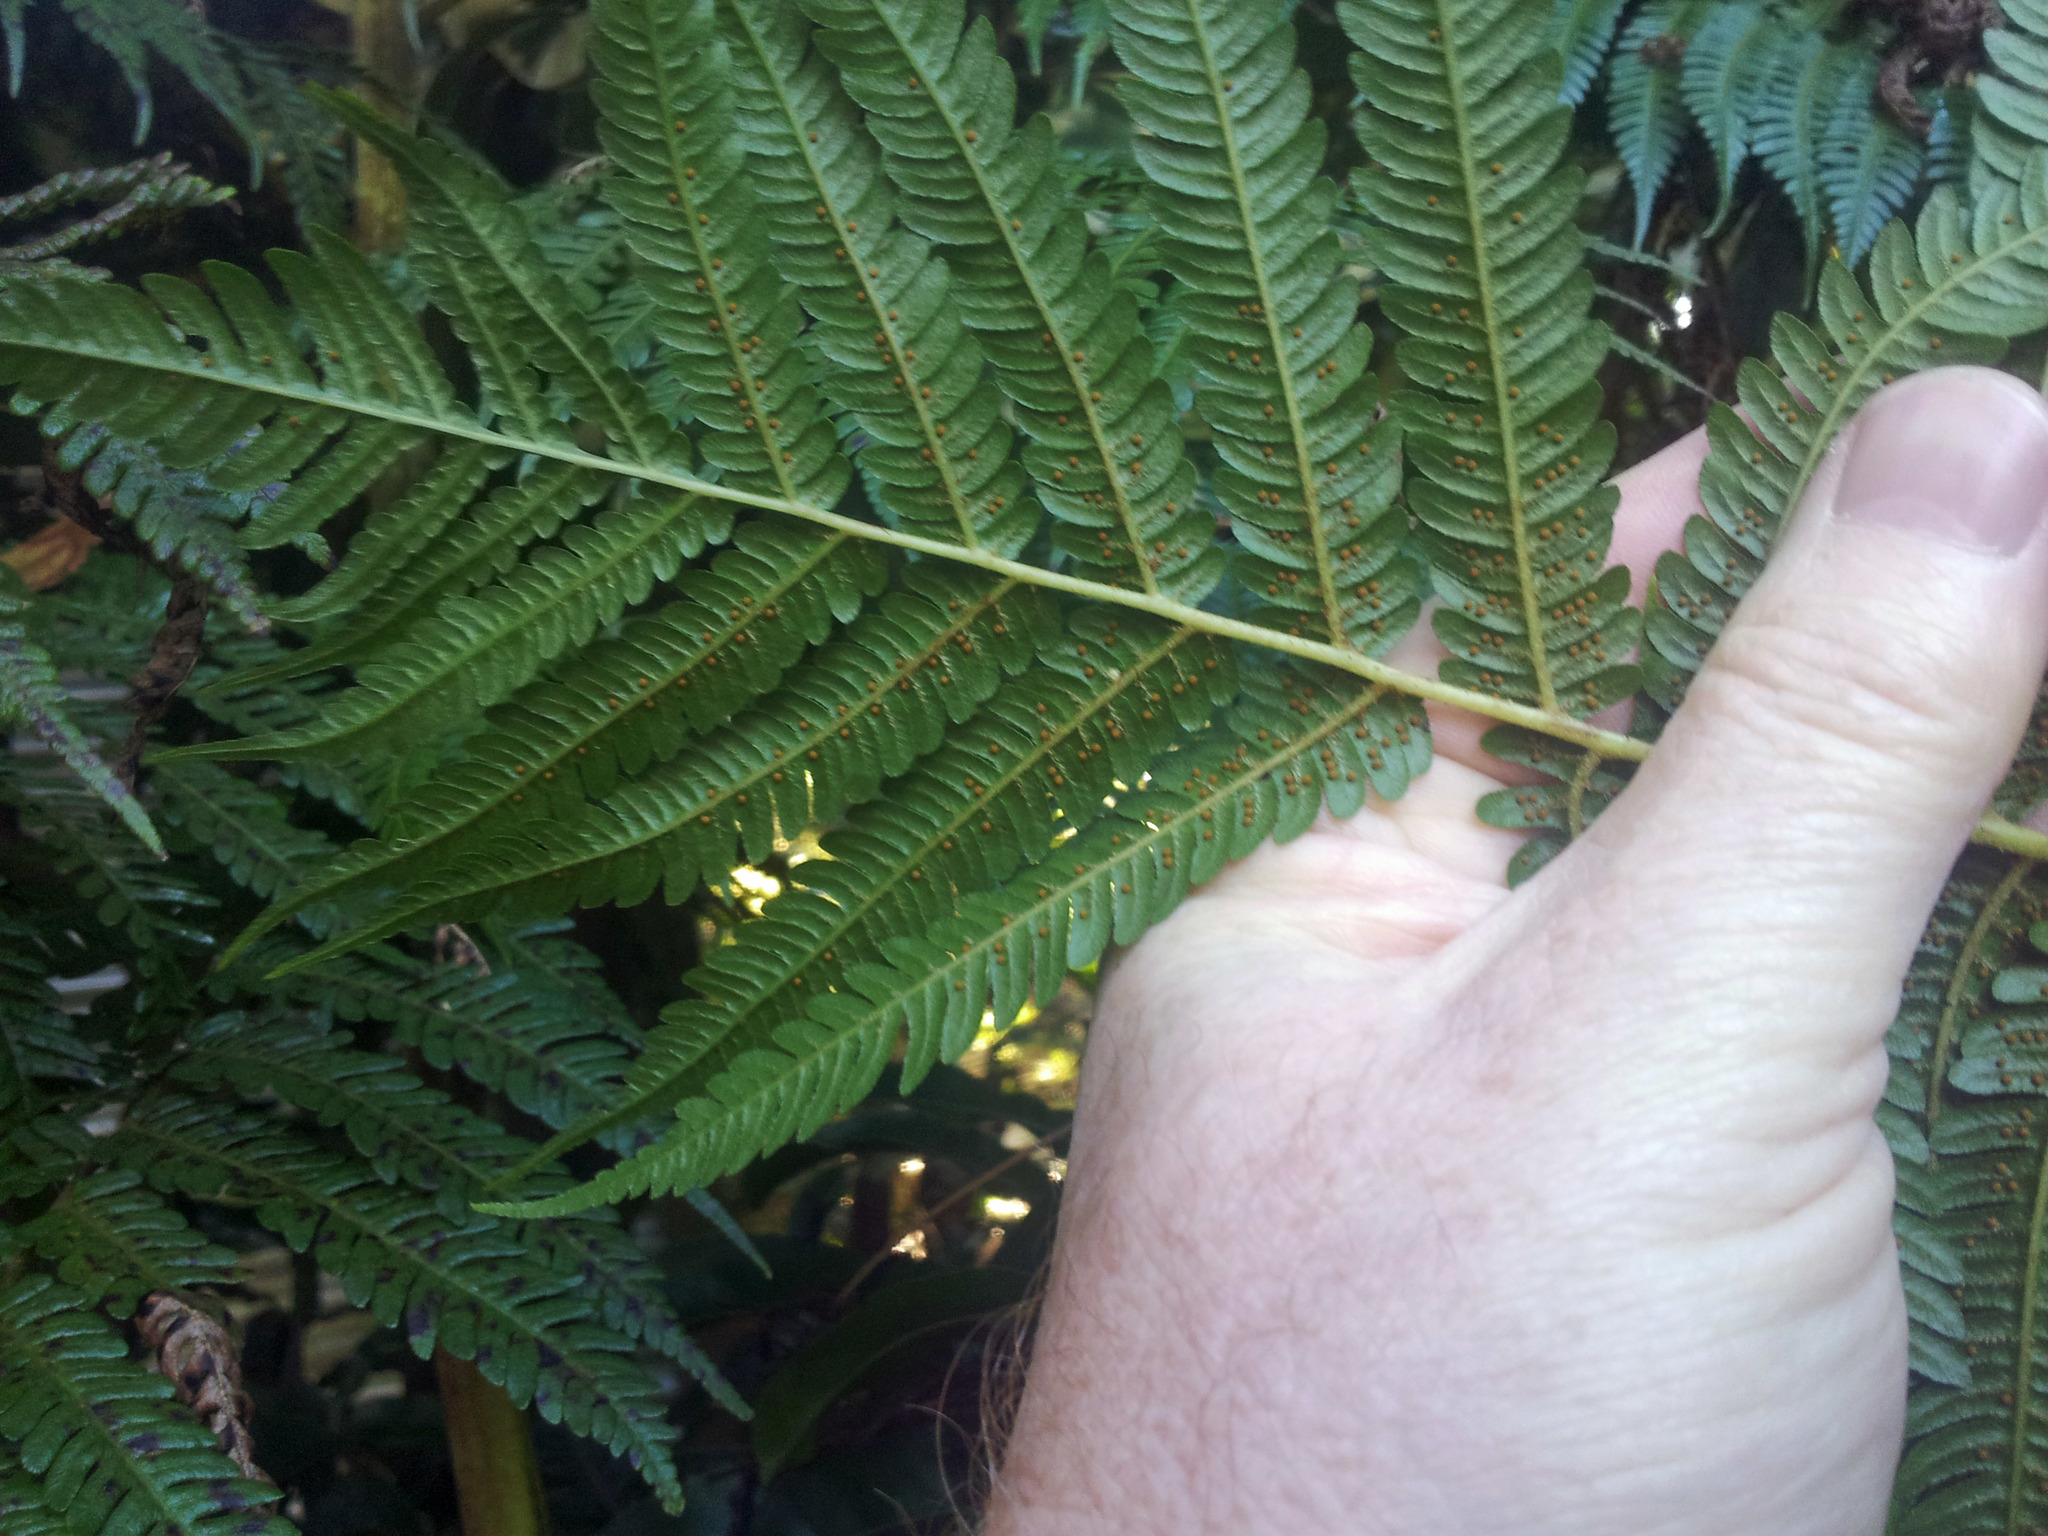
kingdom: Plantae
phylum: Tracheophyta
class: Polypodiopsida
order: Cyatheales
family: Cyatheaceae
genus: Sphaeropteris
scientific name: Sphaeropteris cooperi
